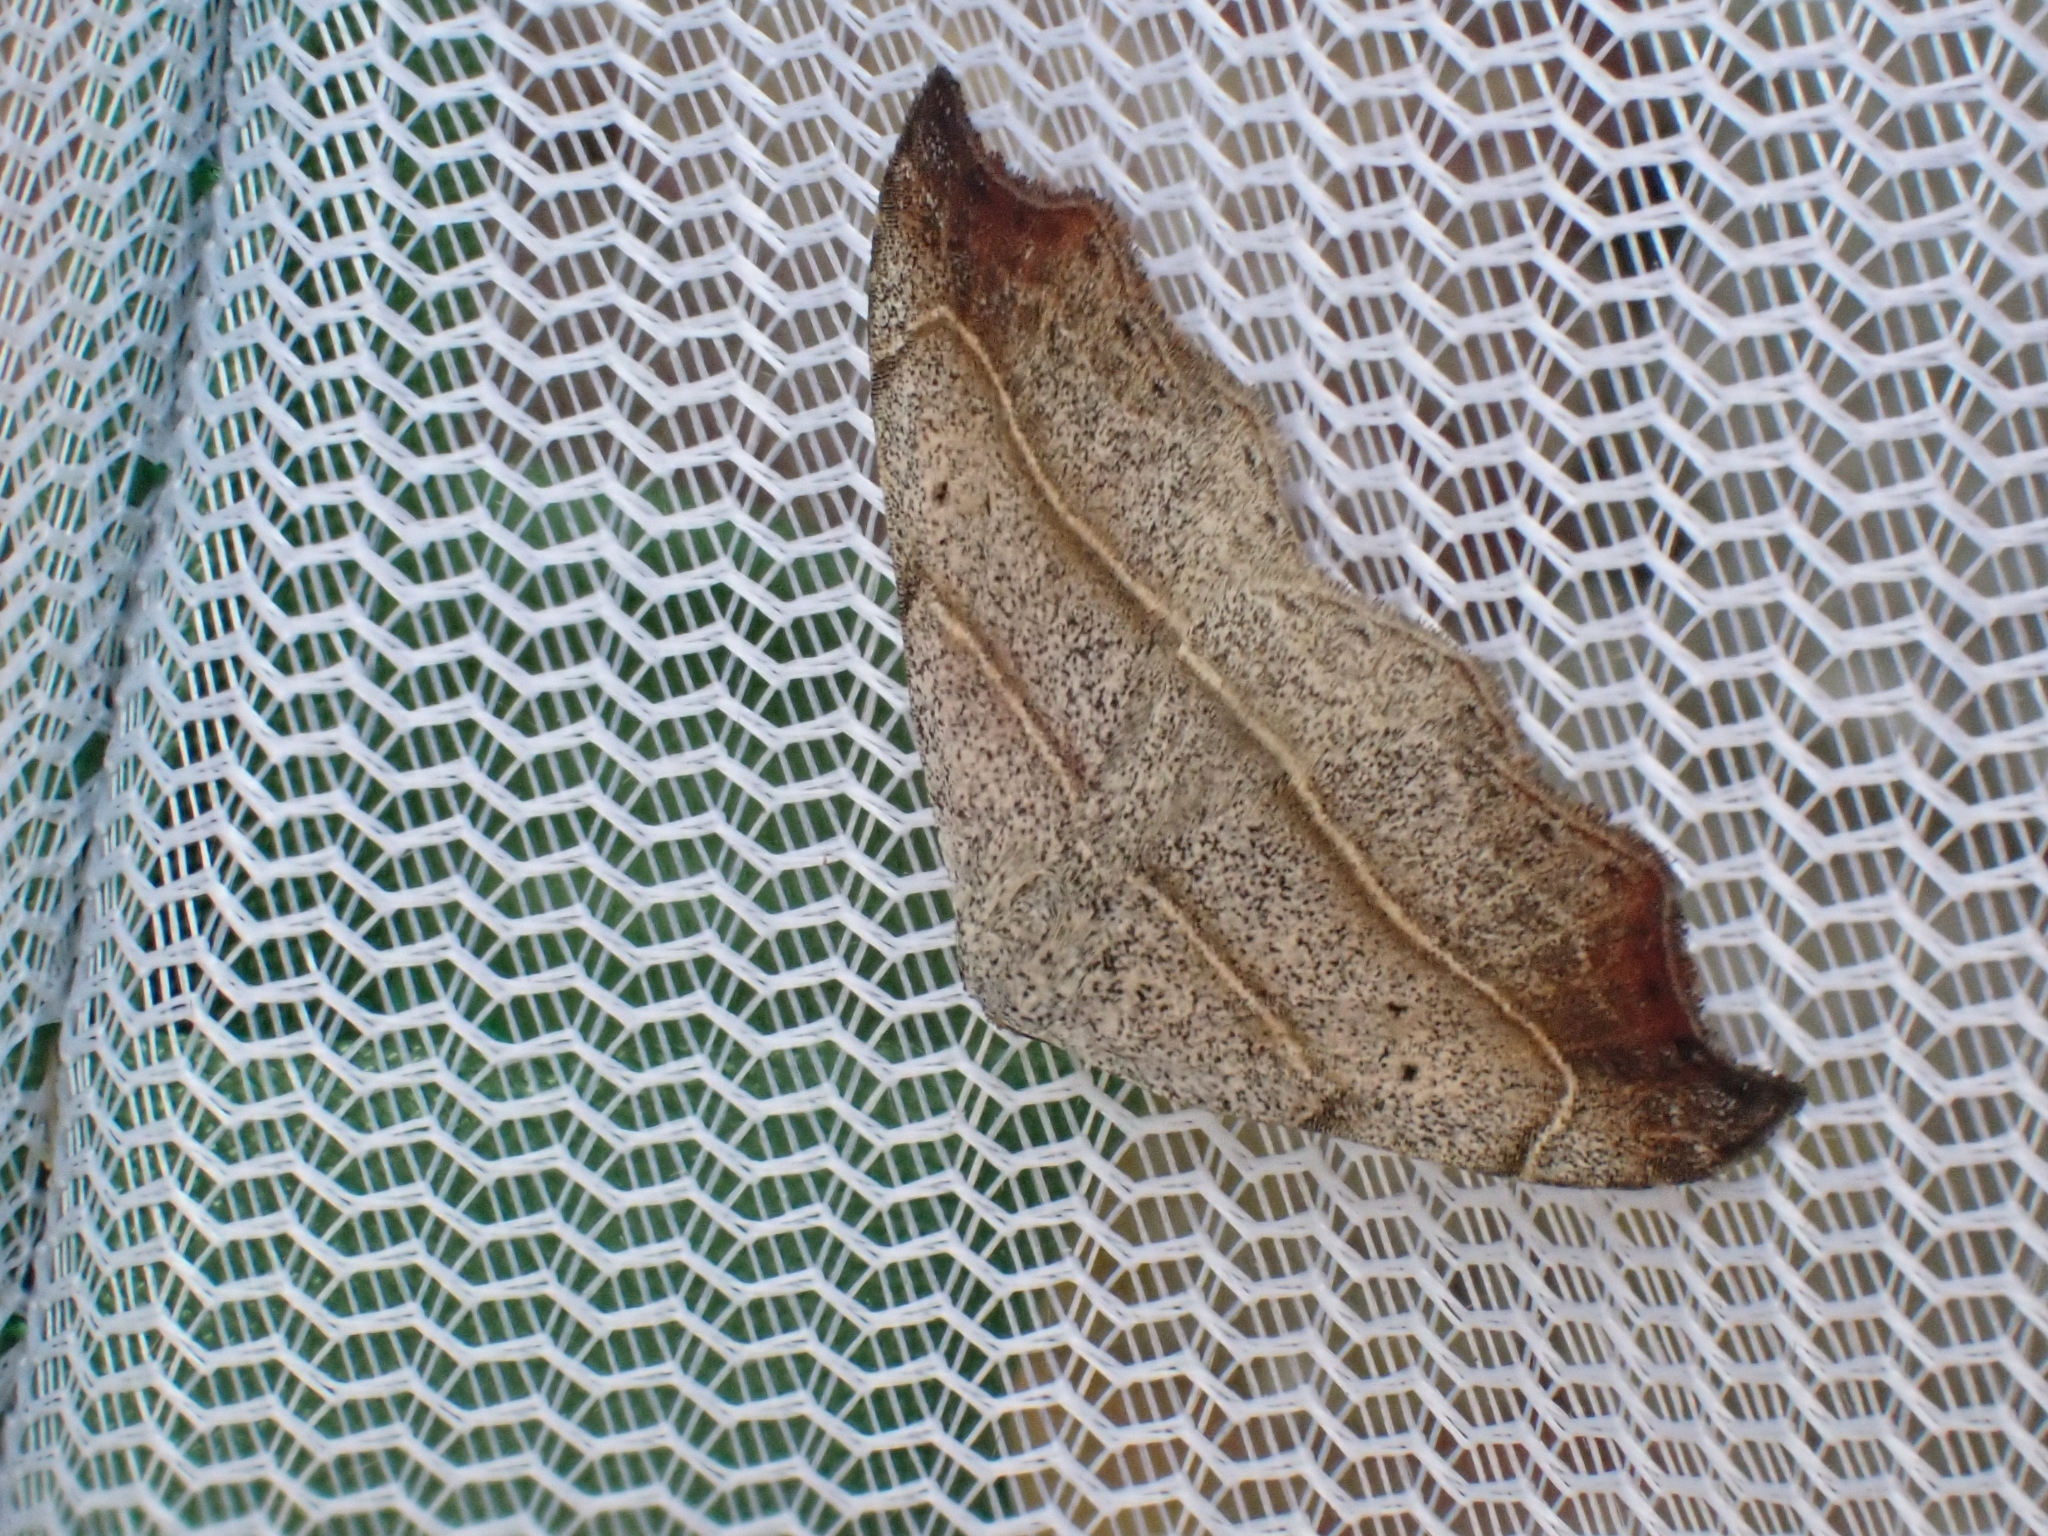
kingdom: Animalia
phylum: Arthropoda
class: Insecta
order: Lepidoptera
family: Erebidae
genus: Laspeyria
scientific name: Laspeyria flexula
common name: Beautiful hook-tip
